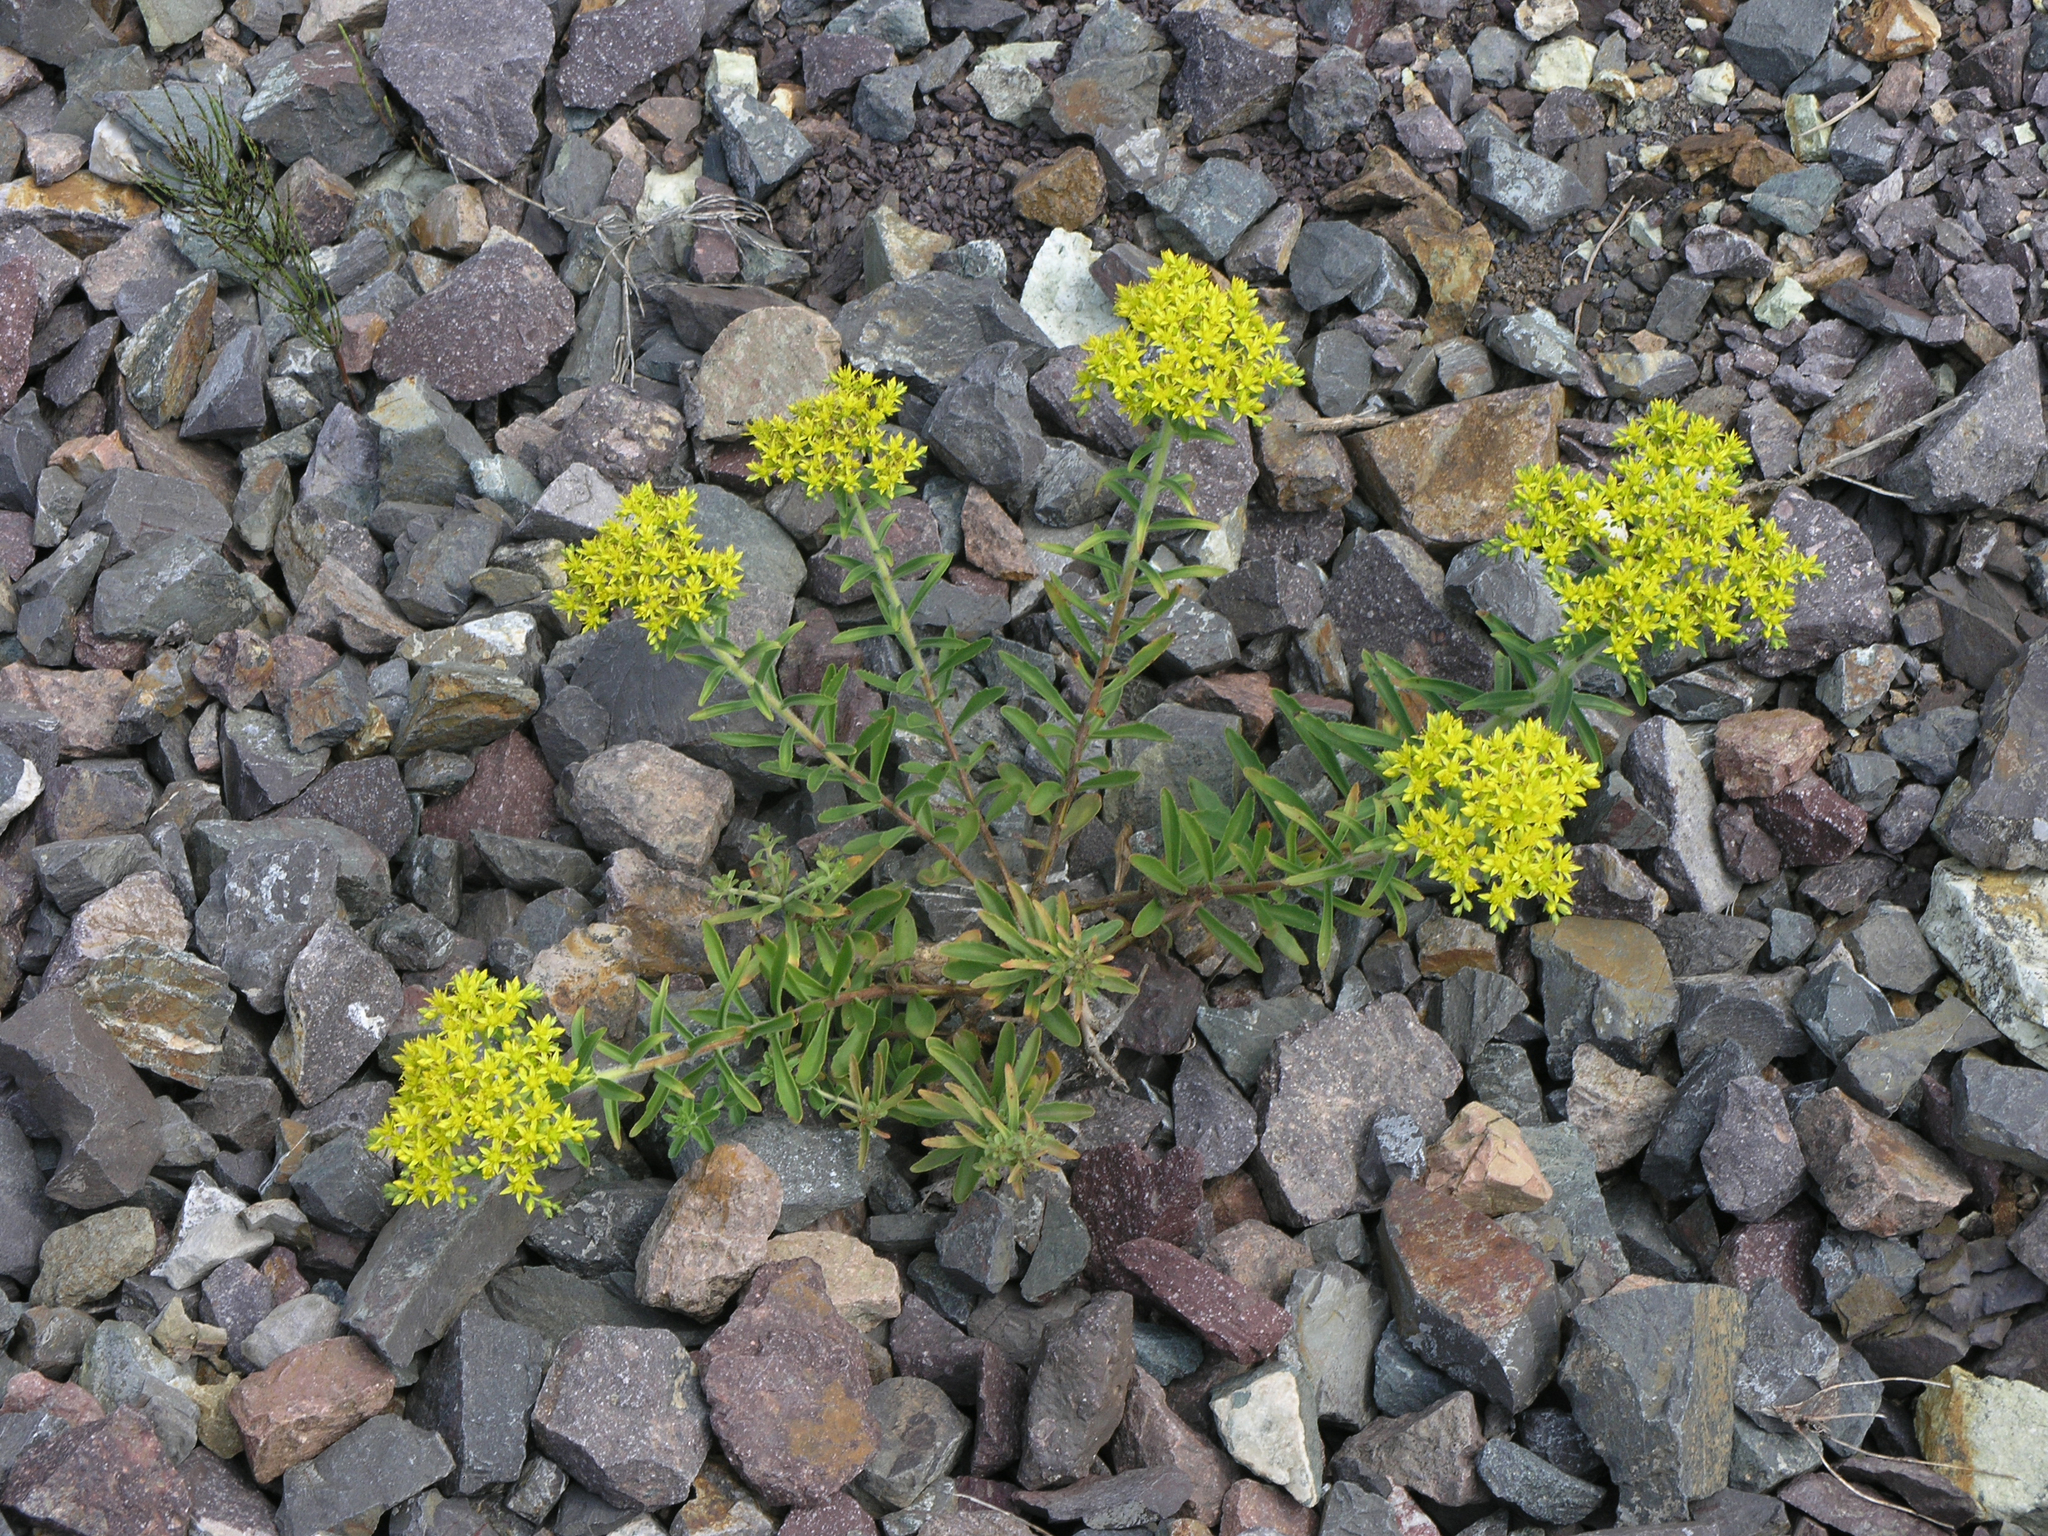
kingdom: Plantae
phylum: Tracheophyta
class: Magnoliopsida
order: Saxifragales
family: Crassulaceae
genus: Phedimus
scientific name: Phedimus selskanianus
